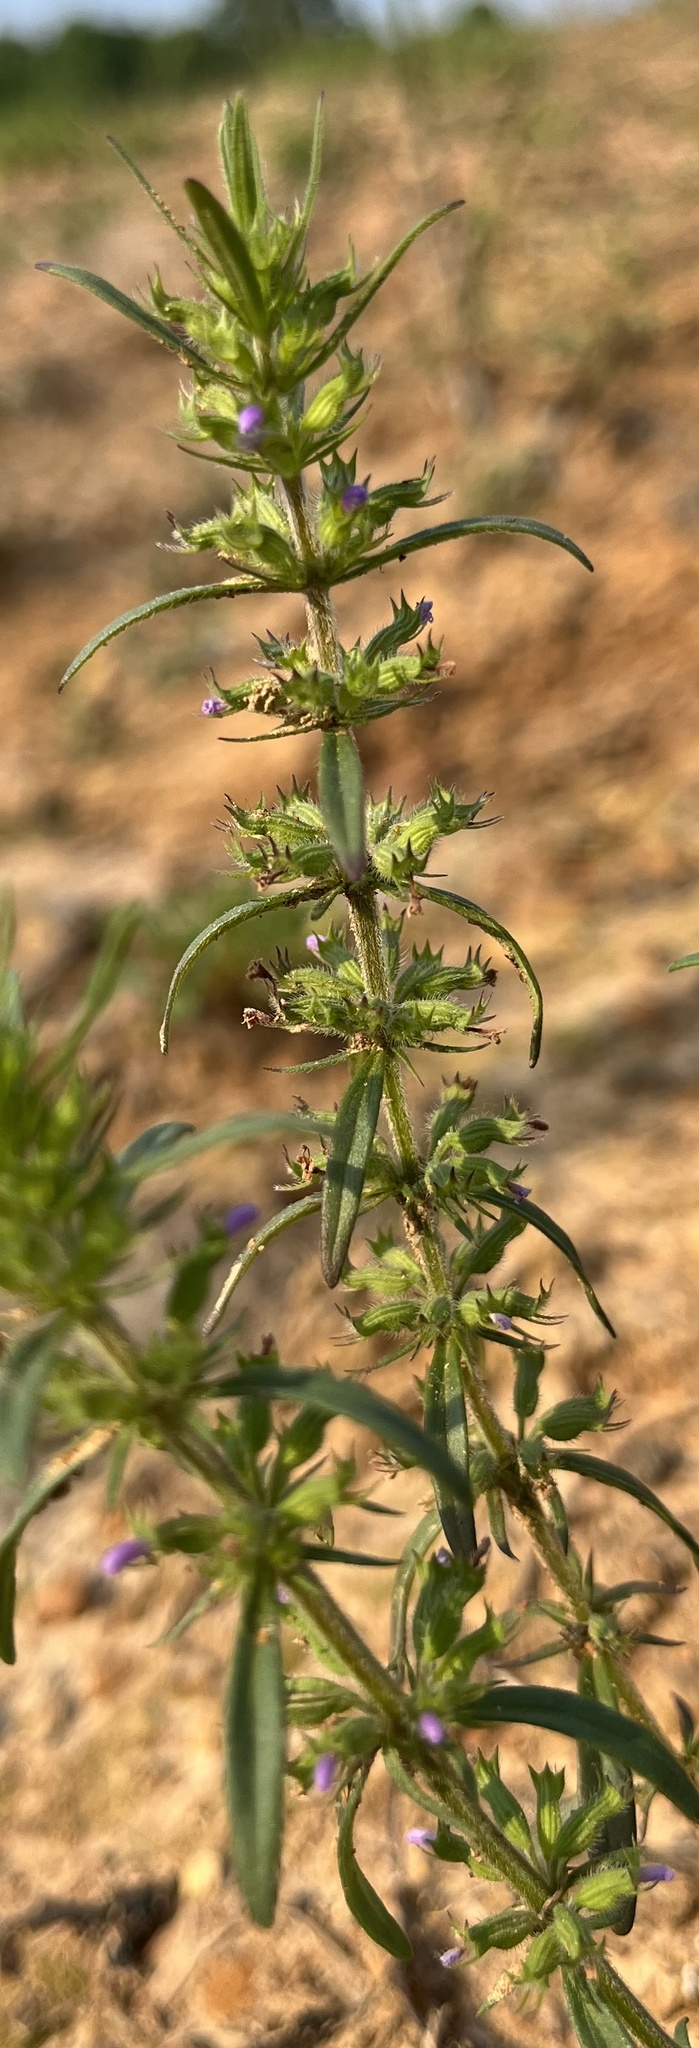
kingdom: Plantae
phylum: Tracheophyta
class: Magnoliopsida
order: Lamiales
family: Lamiaceae
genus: Hedeoma
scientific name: Hedeoma hispida
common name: Mock pennyroyal
